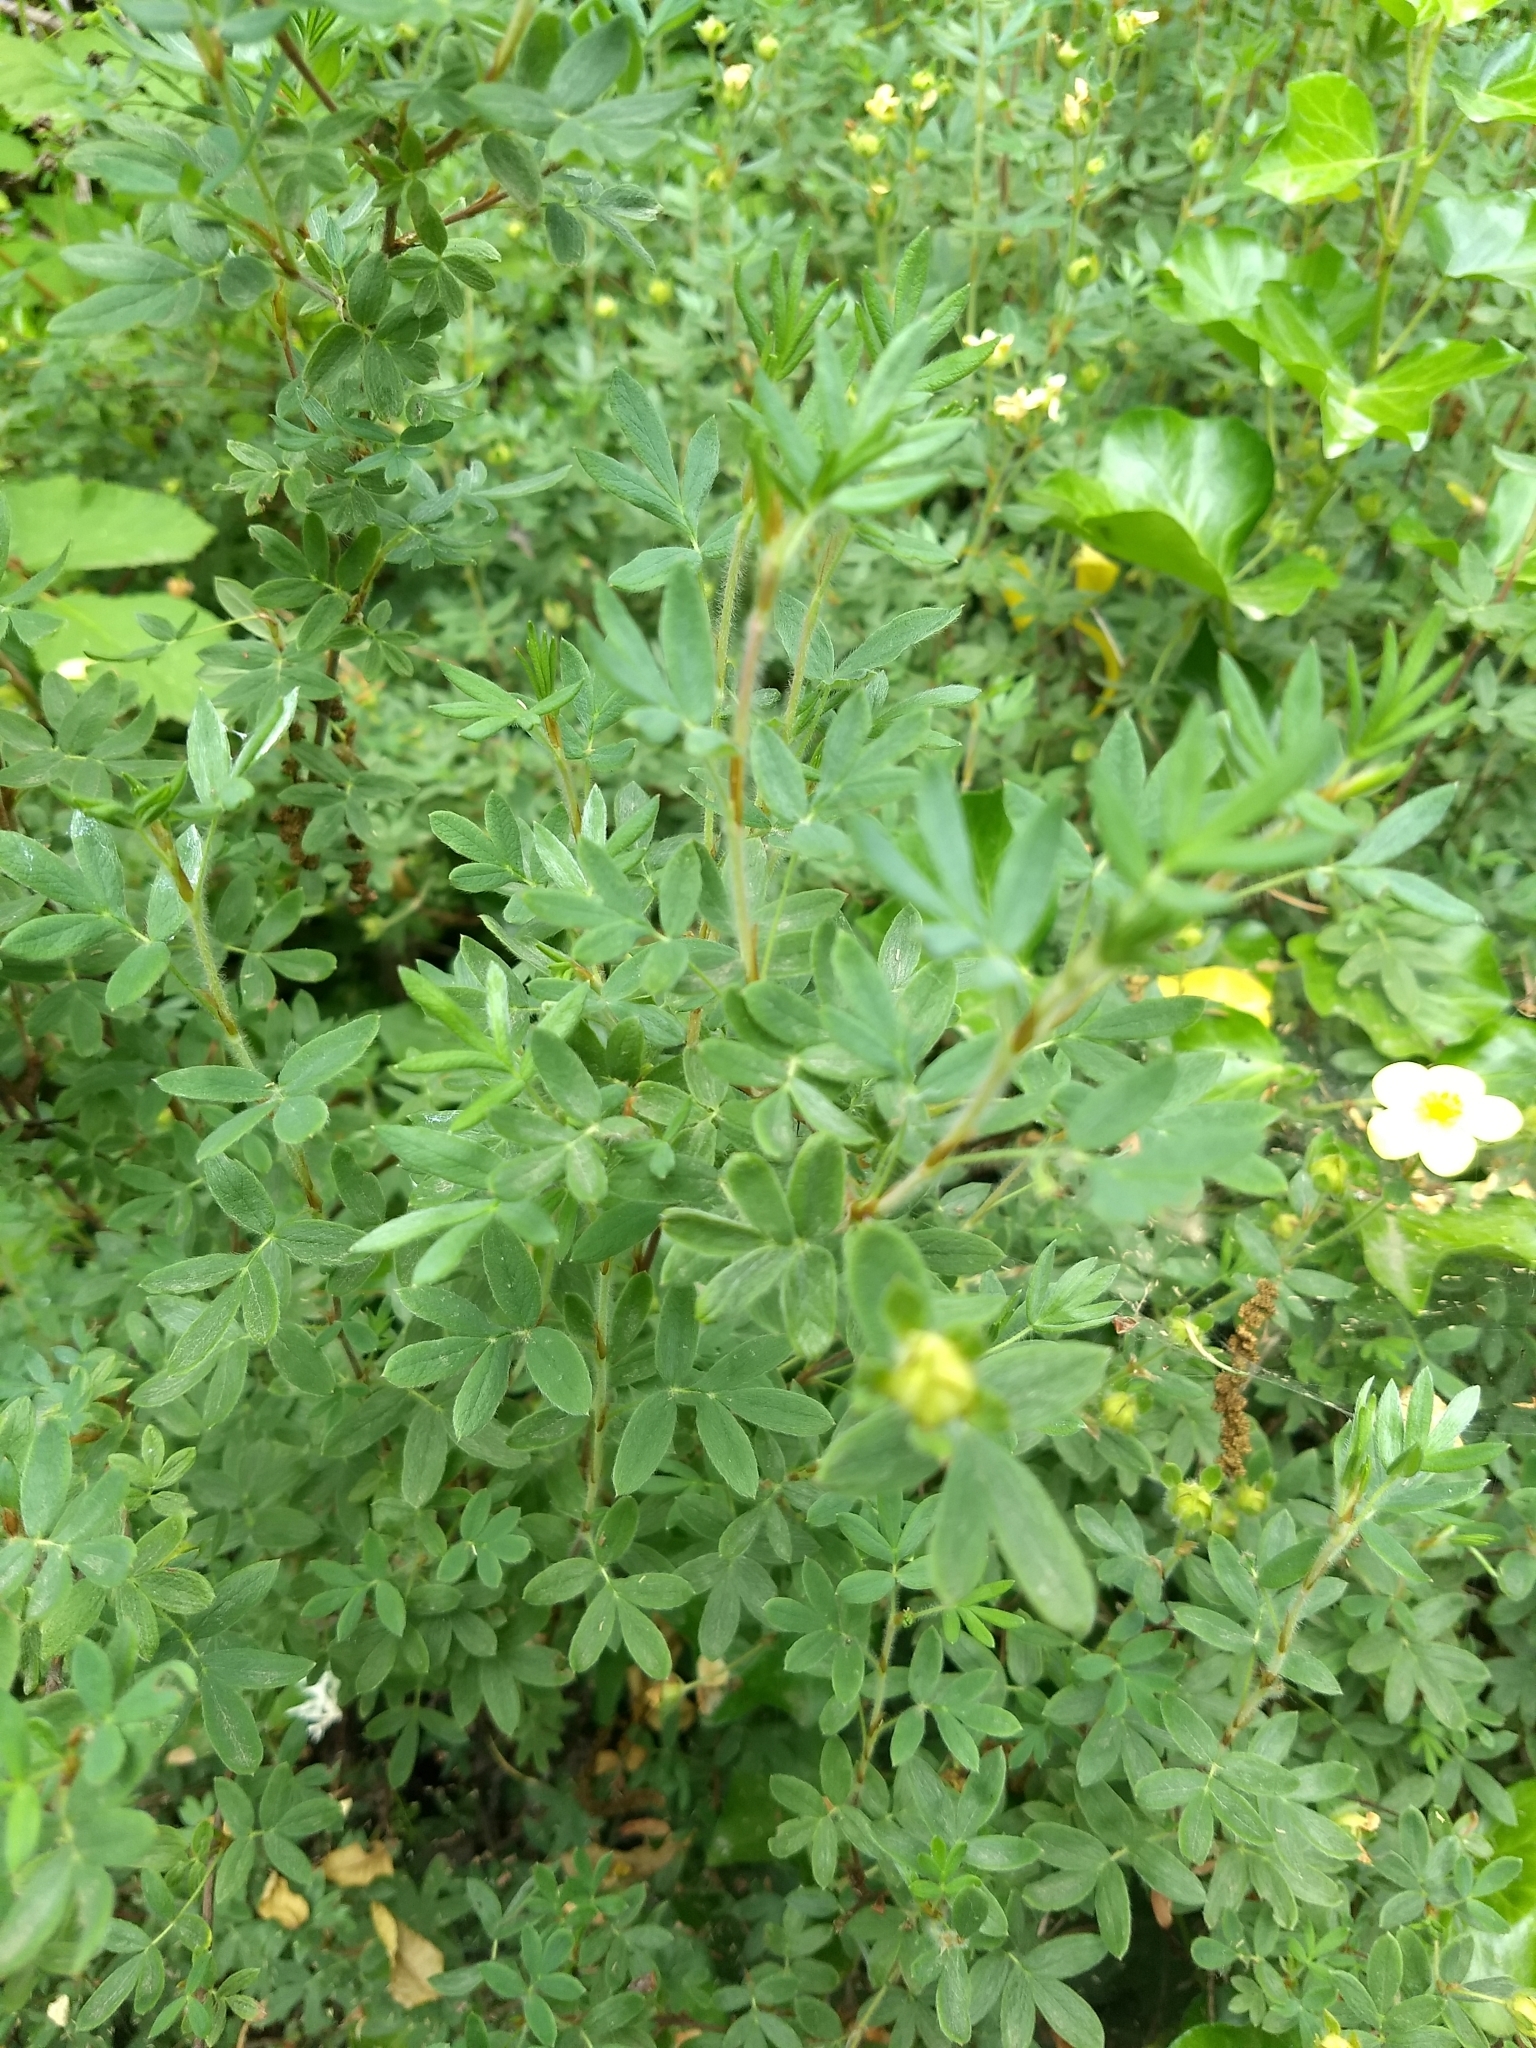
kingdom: Plantae
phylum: Tracheophyta
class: Magnoliopsida
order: Rosales
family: Rosaceae
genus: Dasiphora
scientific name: Dasiphora fruticosa
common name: Shrubby cinquefoil
